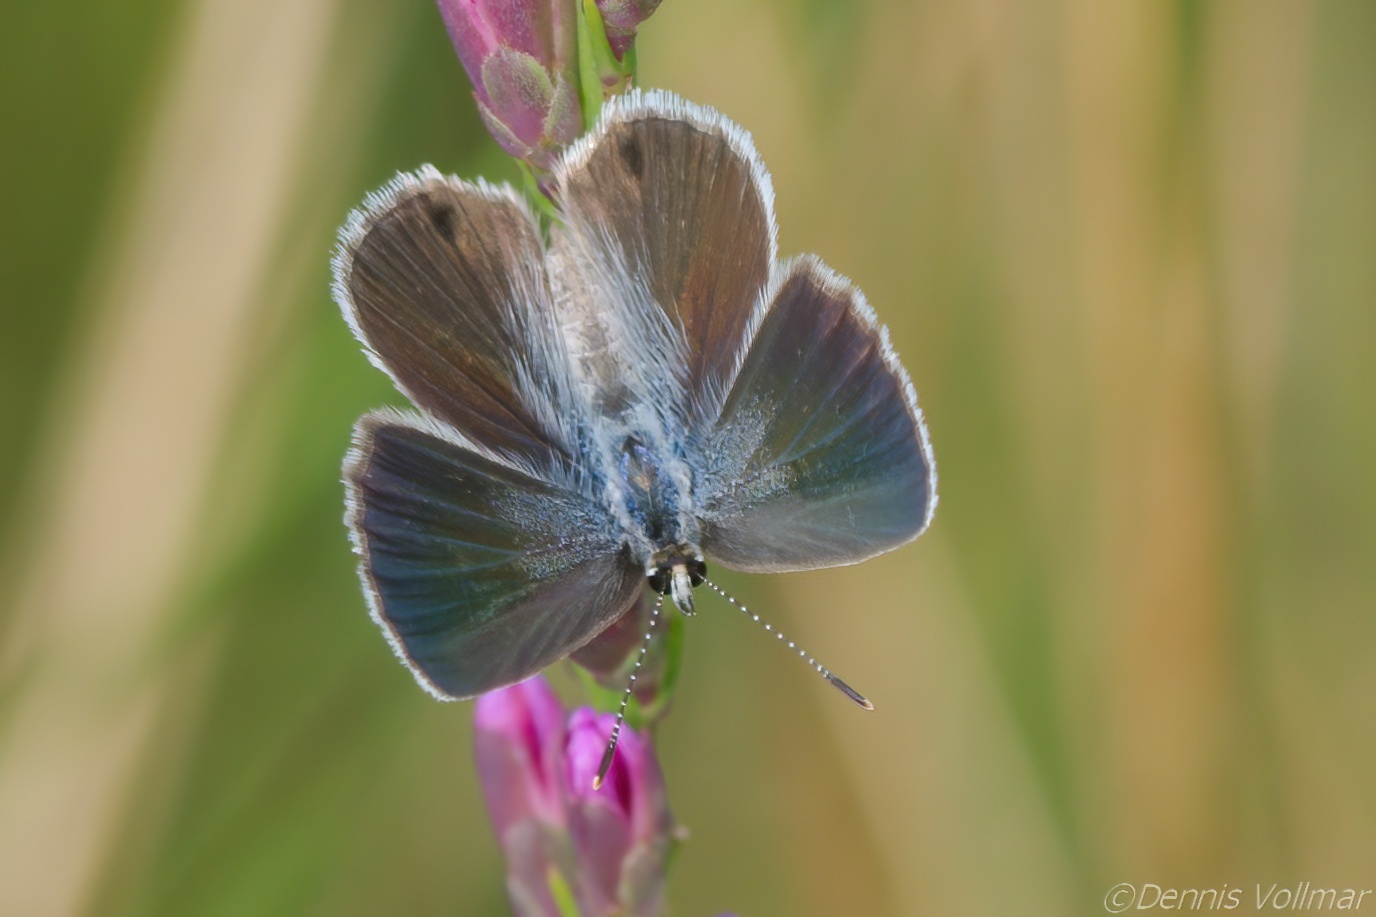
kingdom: Animalia
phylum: Arthropoda
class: Insecta
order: Lepidoptera
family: Lycaenidae
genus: Hemiargus
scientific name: Hemiargus ceraunus
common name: Ceraunus blue
